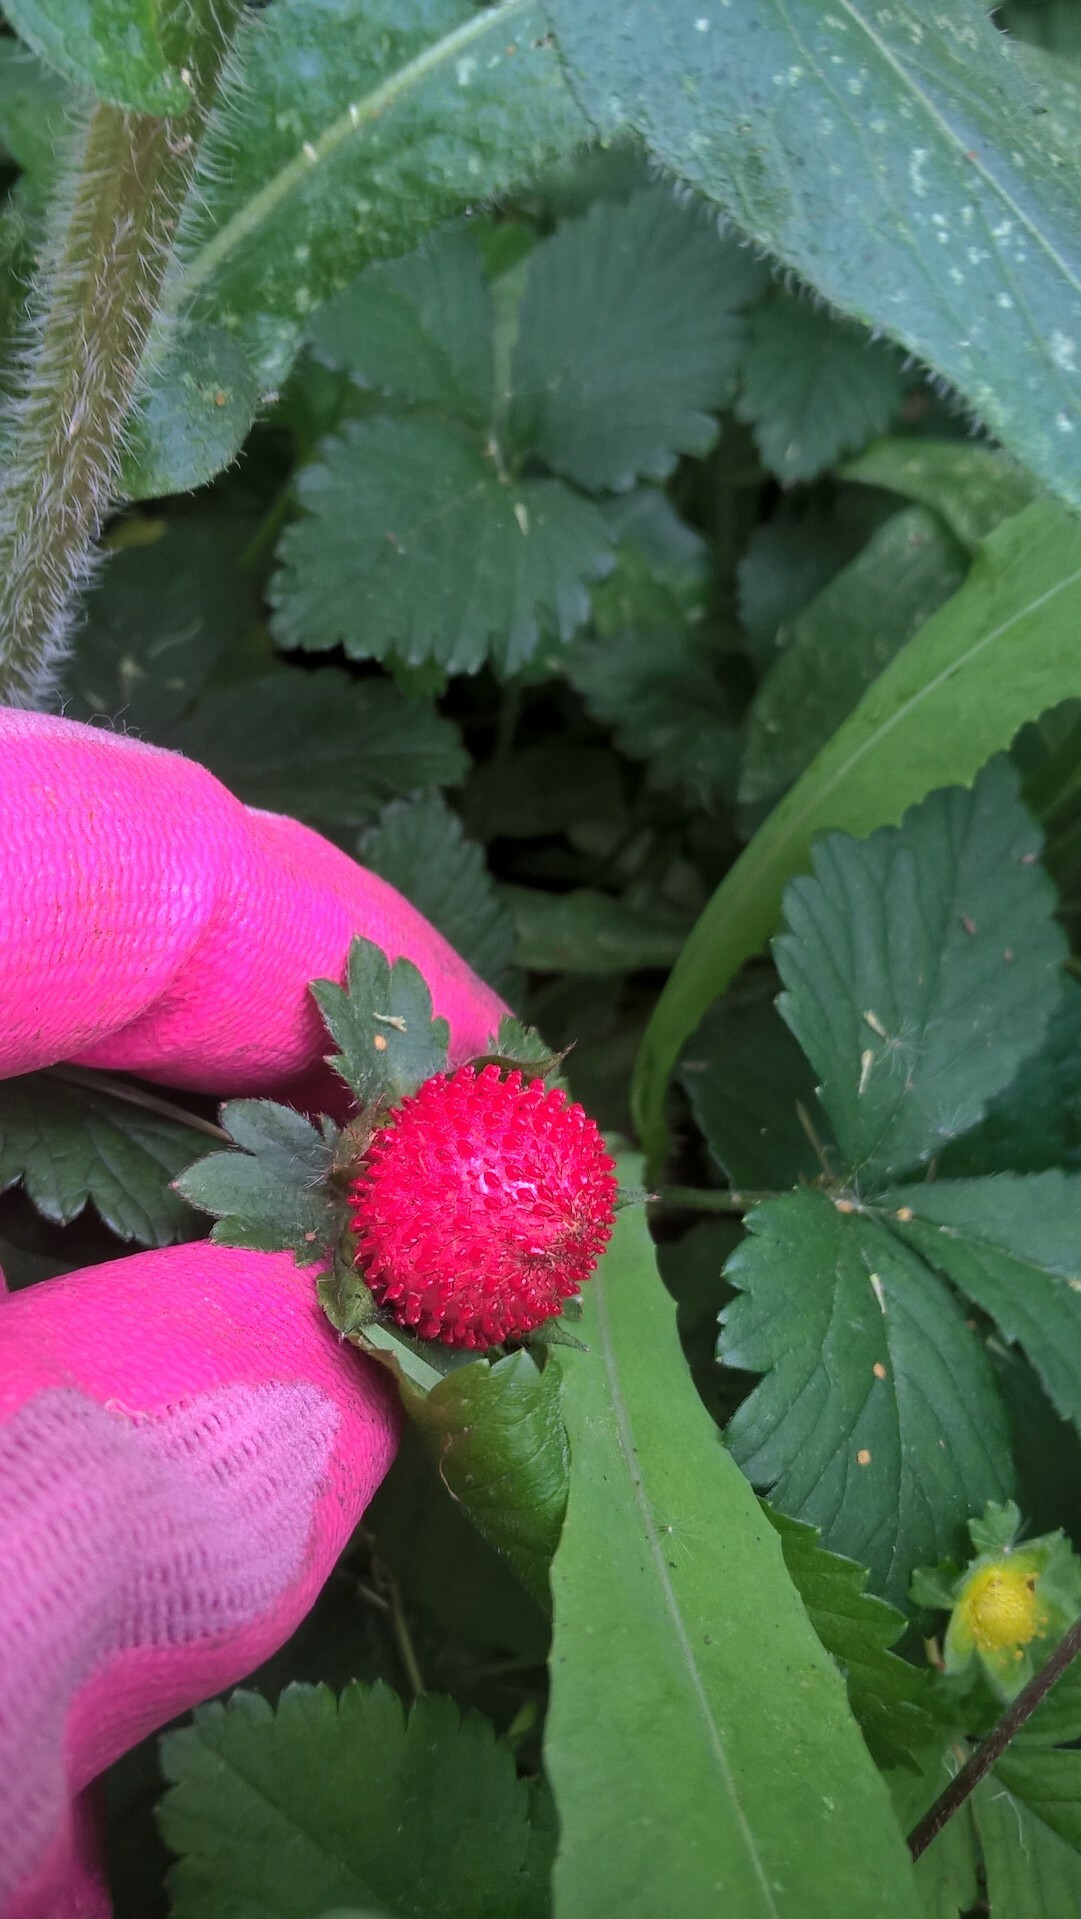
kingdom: Plantae
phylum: Tracheophyta
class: Magnoliopsida
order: Rosales
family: Rosaceae
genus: Potentilla
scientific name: Potentilla indica
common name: Yellow-flowered strawberry
